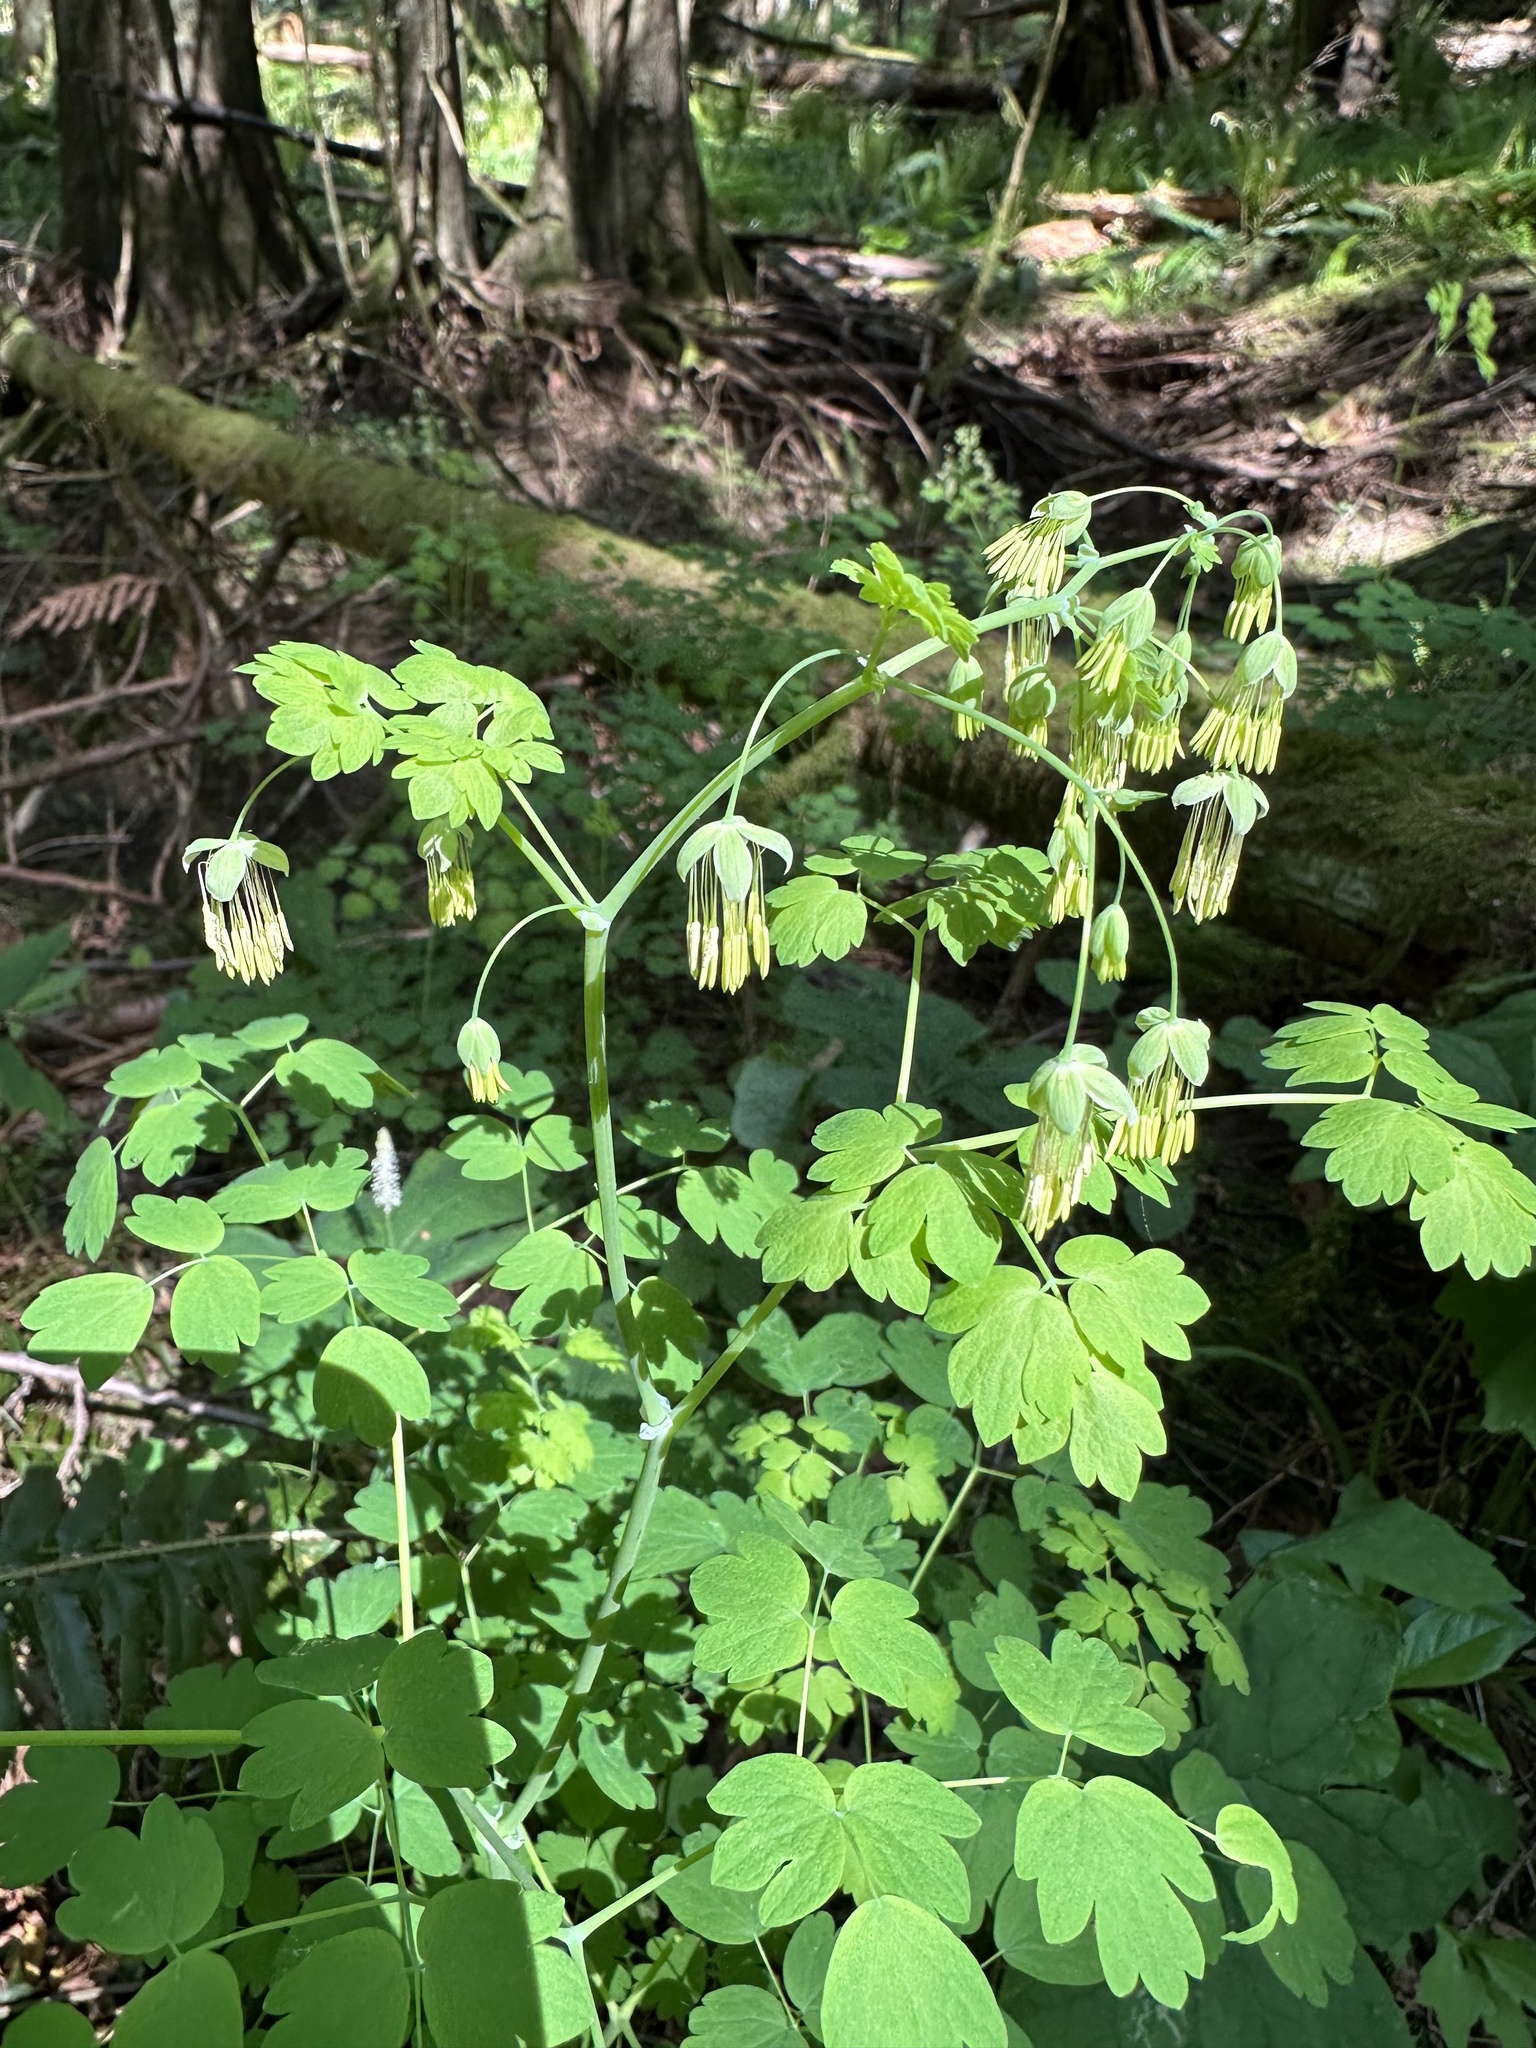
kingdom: Plantae
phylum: Tracheophyta
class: Magnoliopsida
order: Ranunculales
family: Ranunculaceae
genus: Thalictrum
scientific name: Thalictrum occidentale
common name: Western meadow-rue
